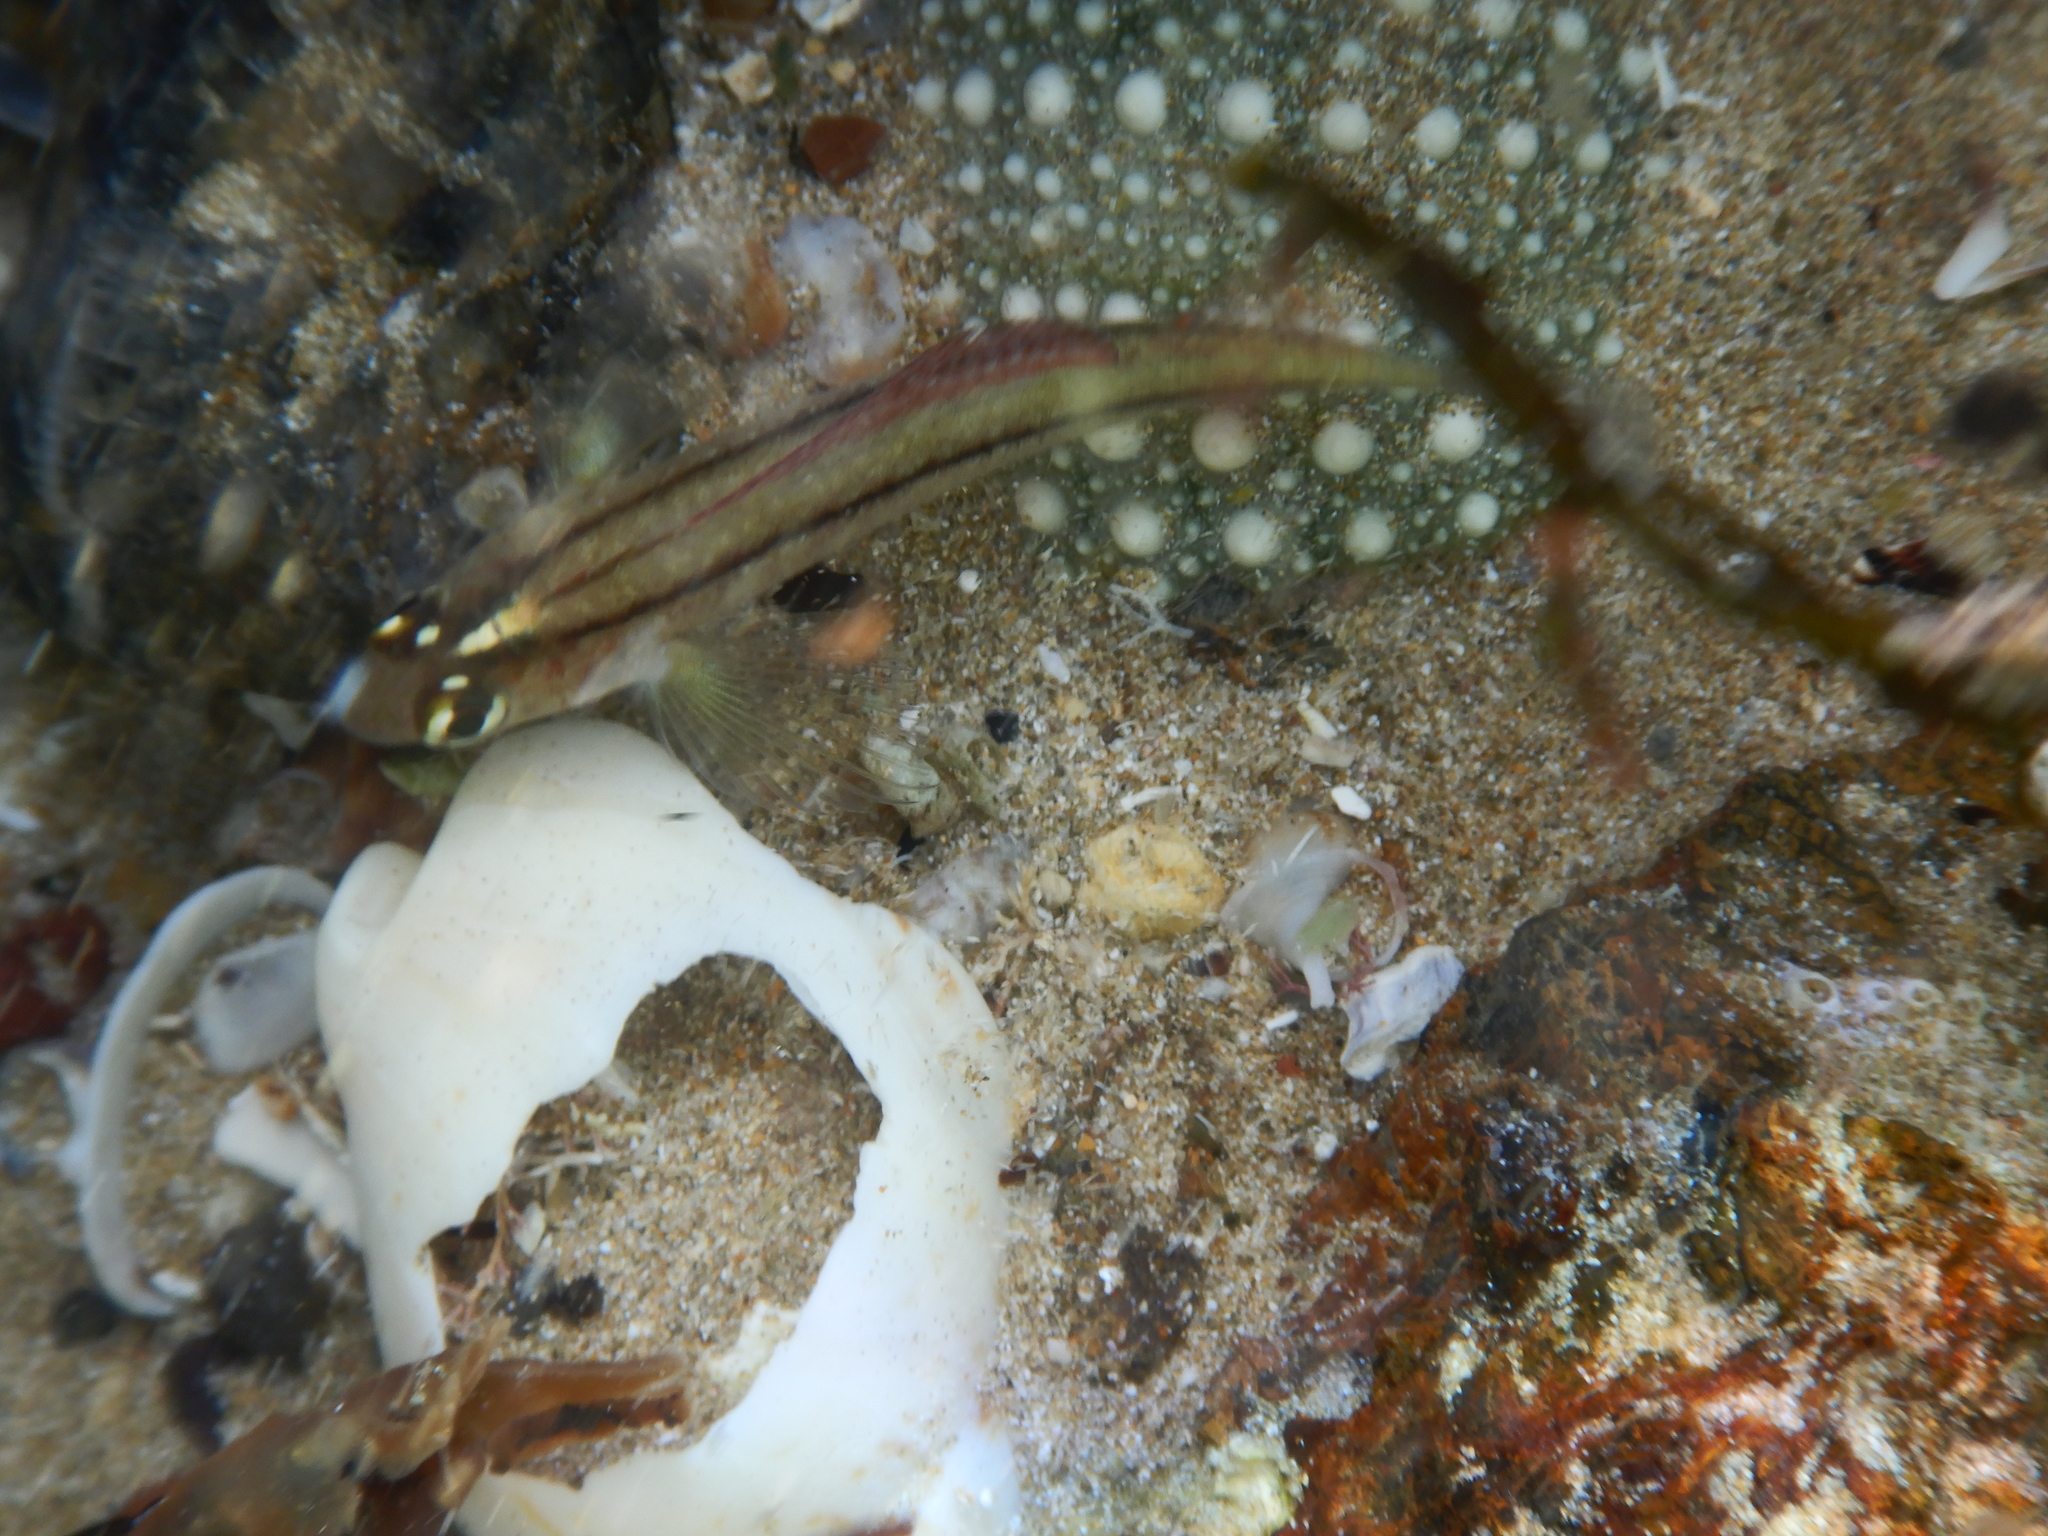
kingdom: Animalia
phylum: Chordata
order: Perciformes
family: Tripterygiidae
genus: Forsterygion
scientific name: Forsterygion lapillum
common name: Common triplefin
